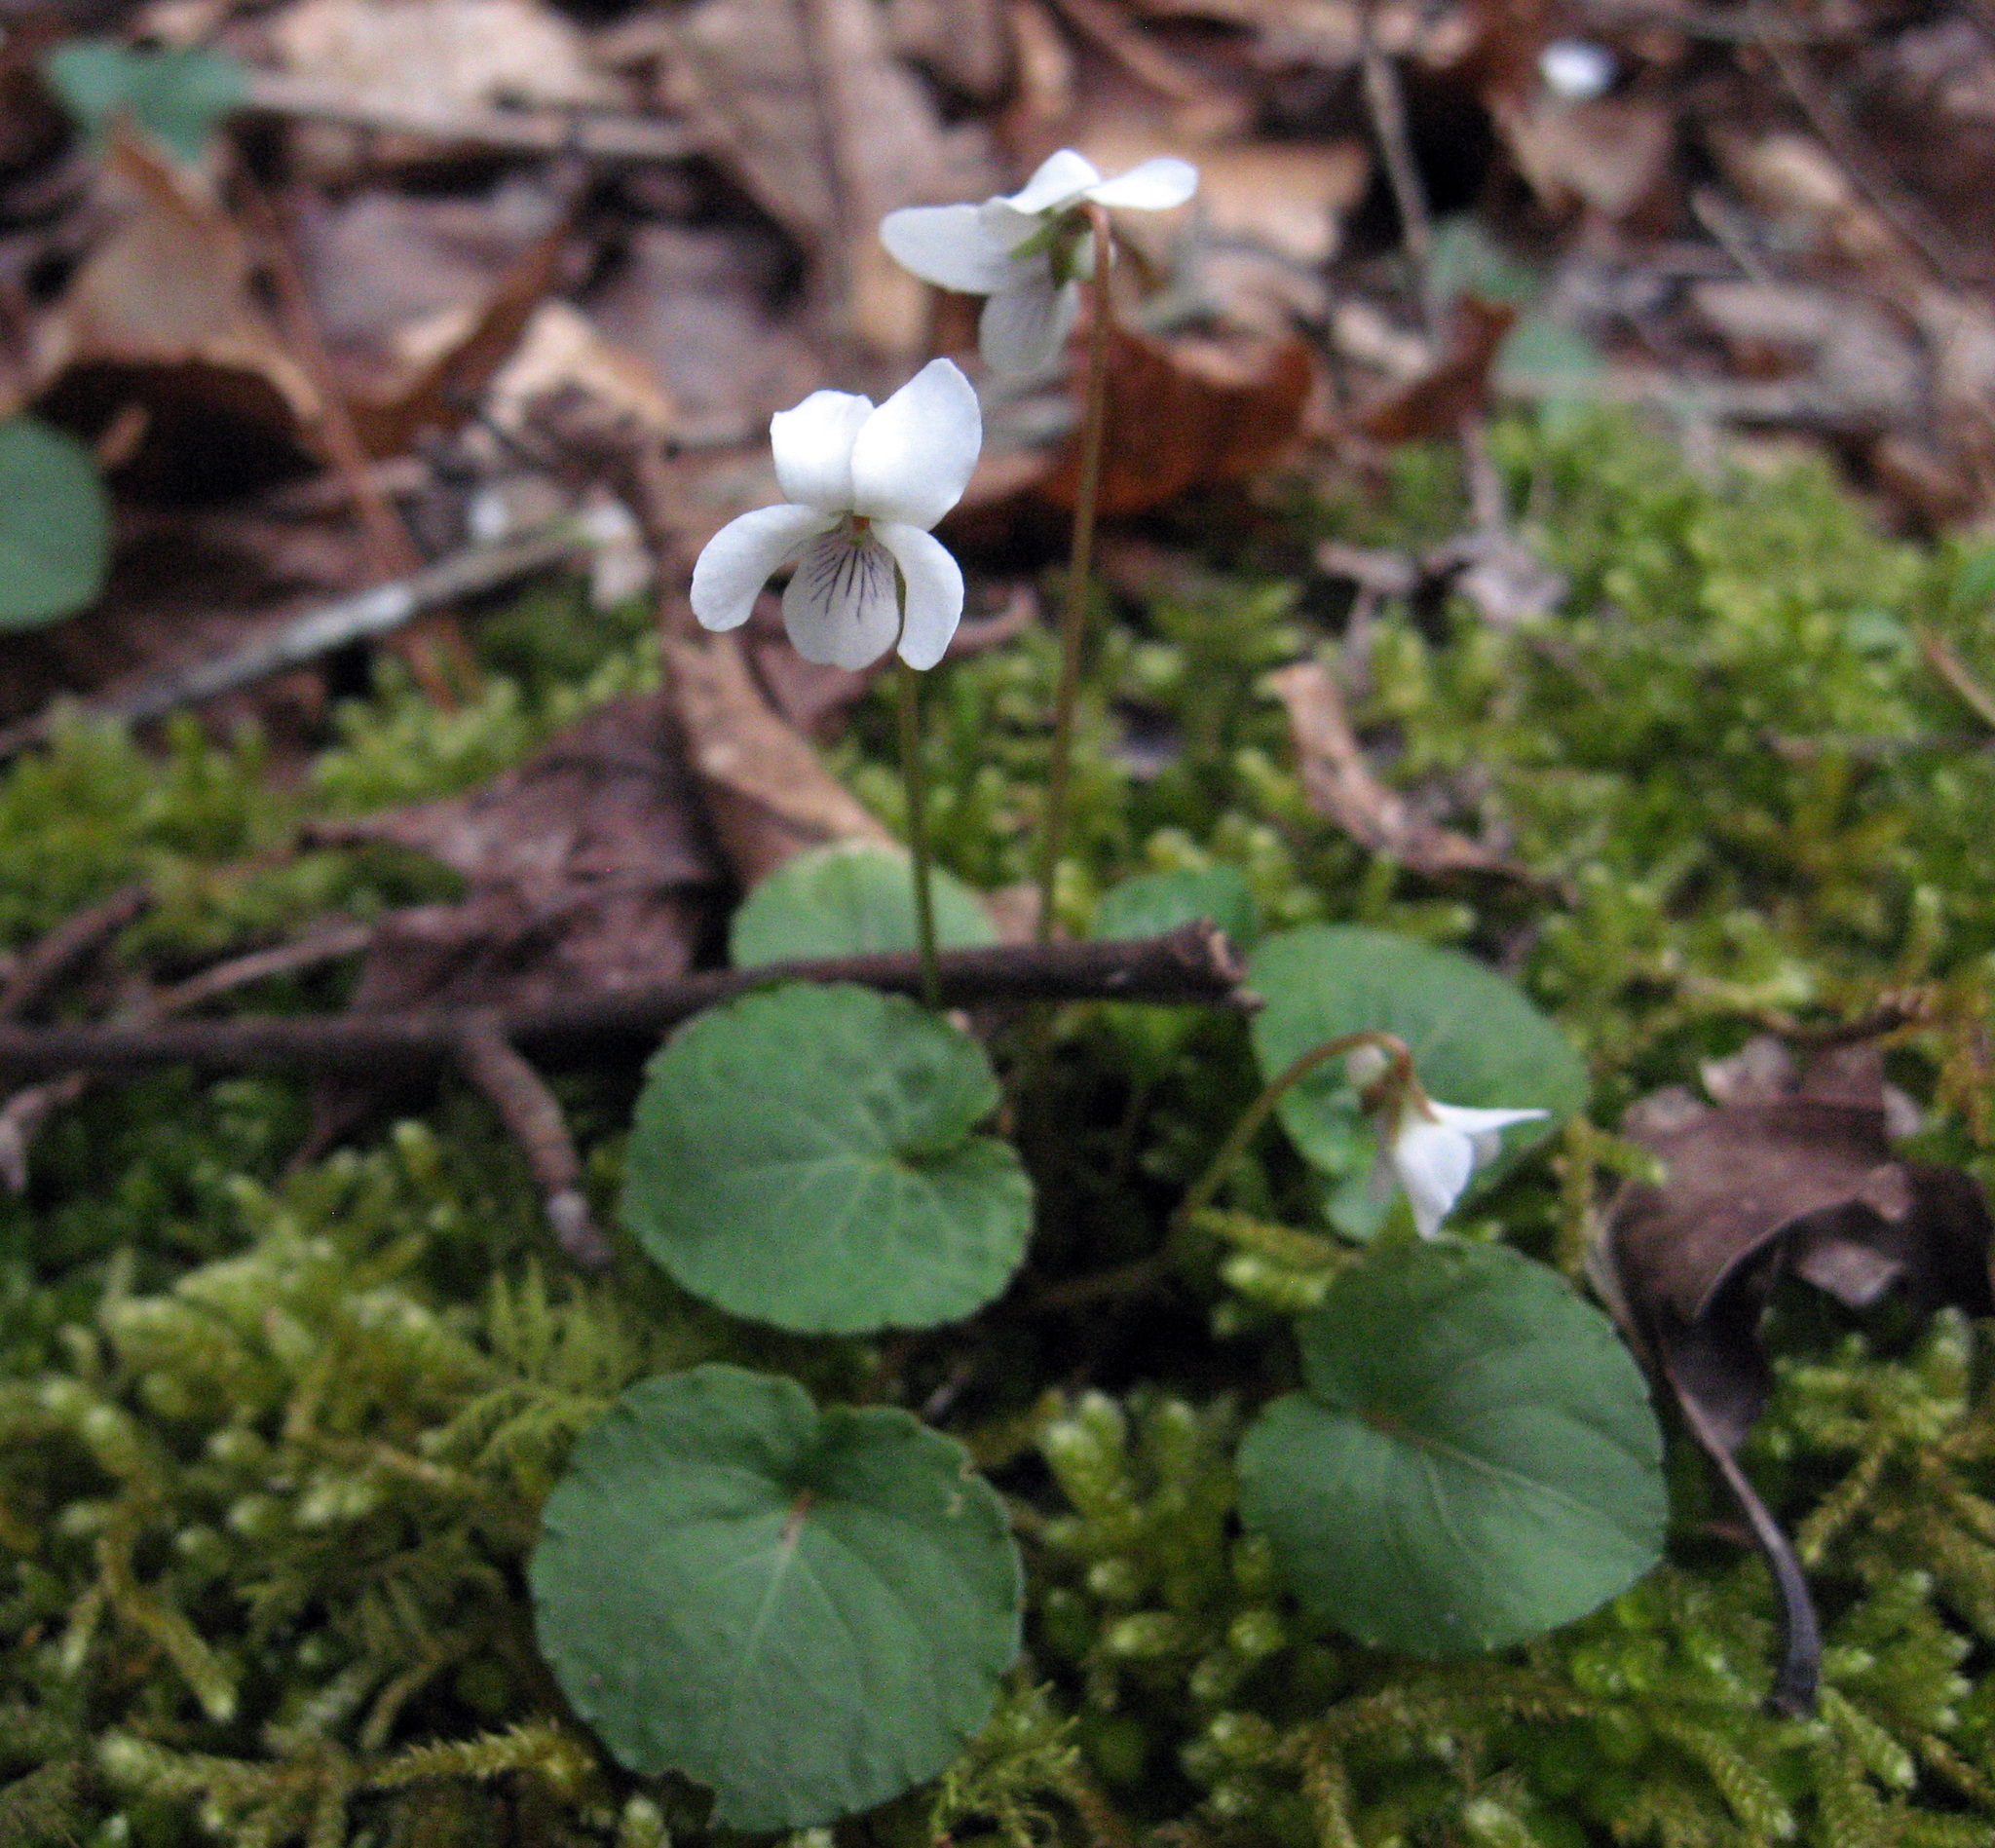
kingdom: Plantae
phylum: Tracheophyta
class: Magnoliopsida
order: Malpighiales
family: Violaceae
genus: Viola
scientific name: Viola blanda
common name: Sweet white violet
